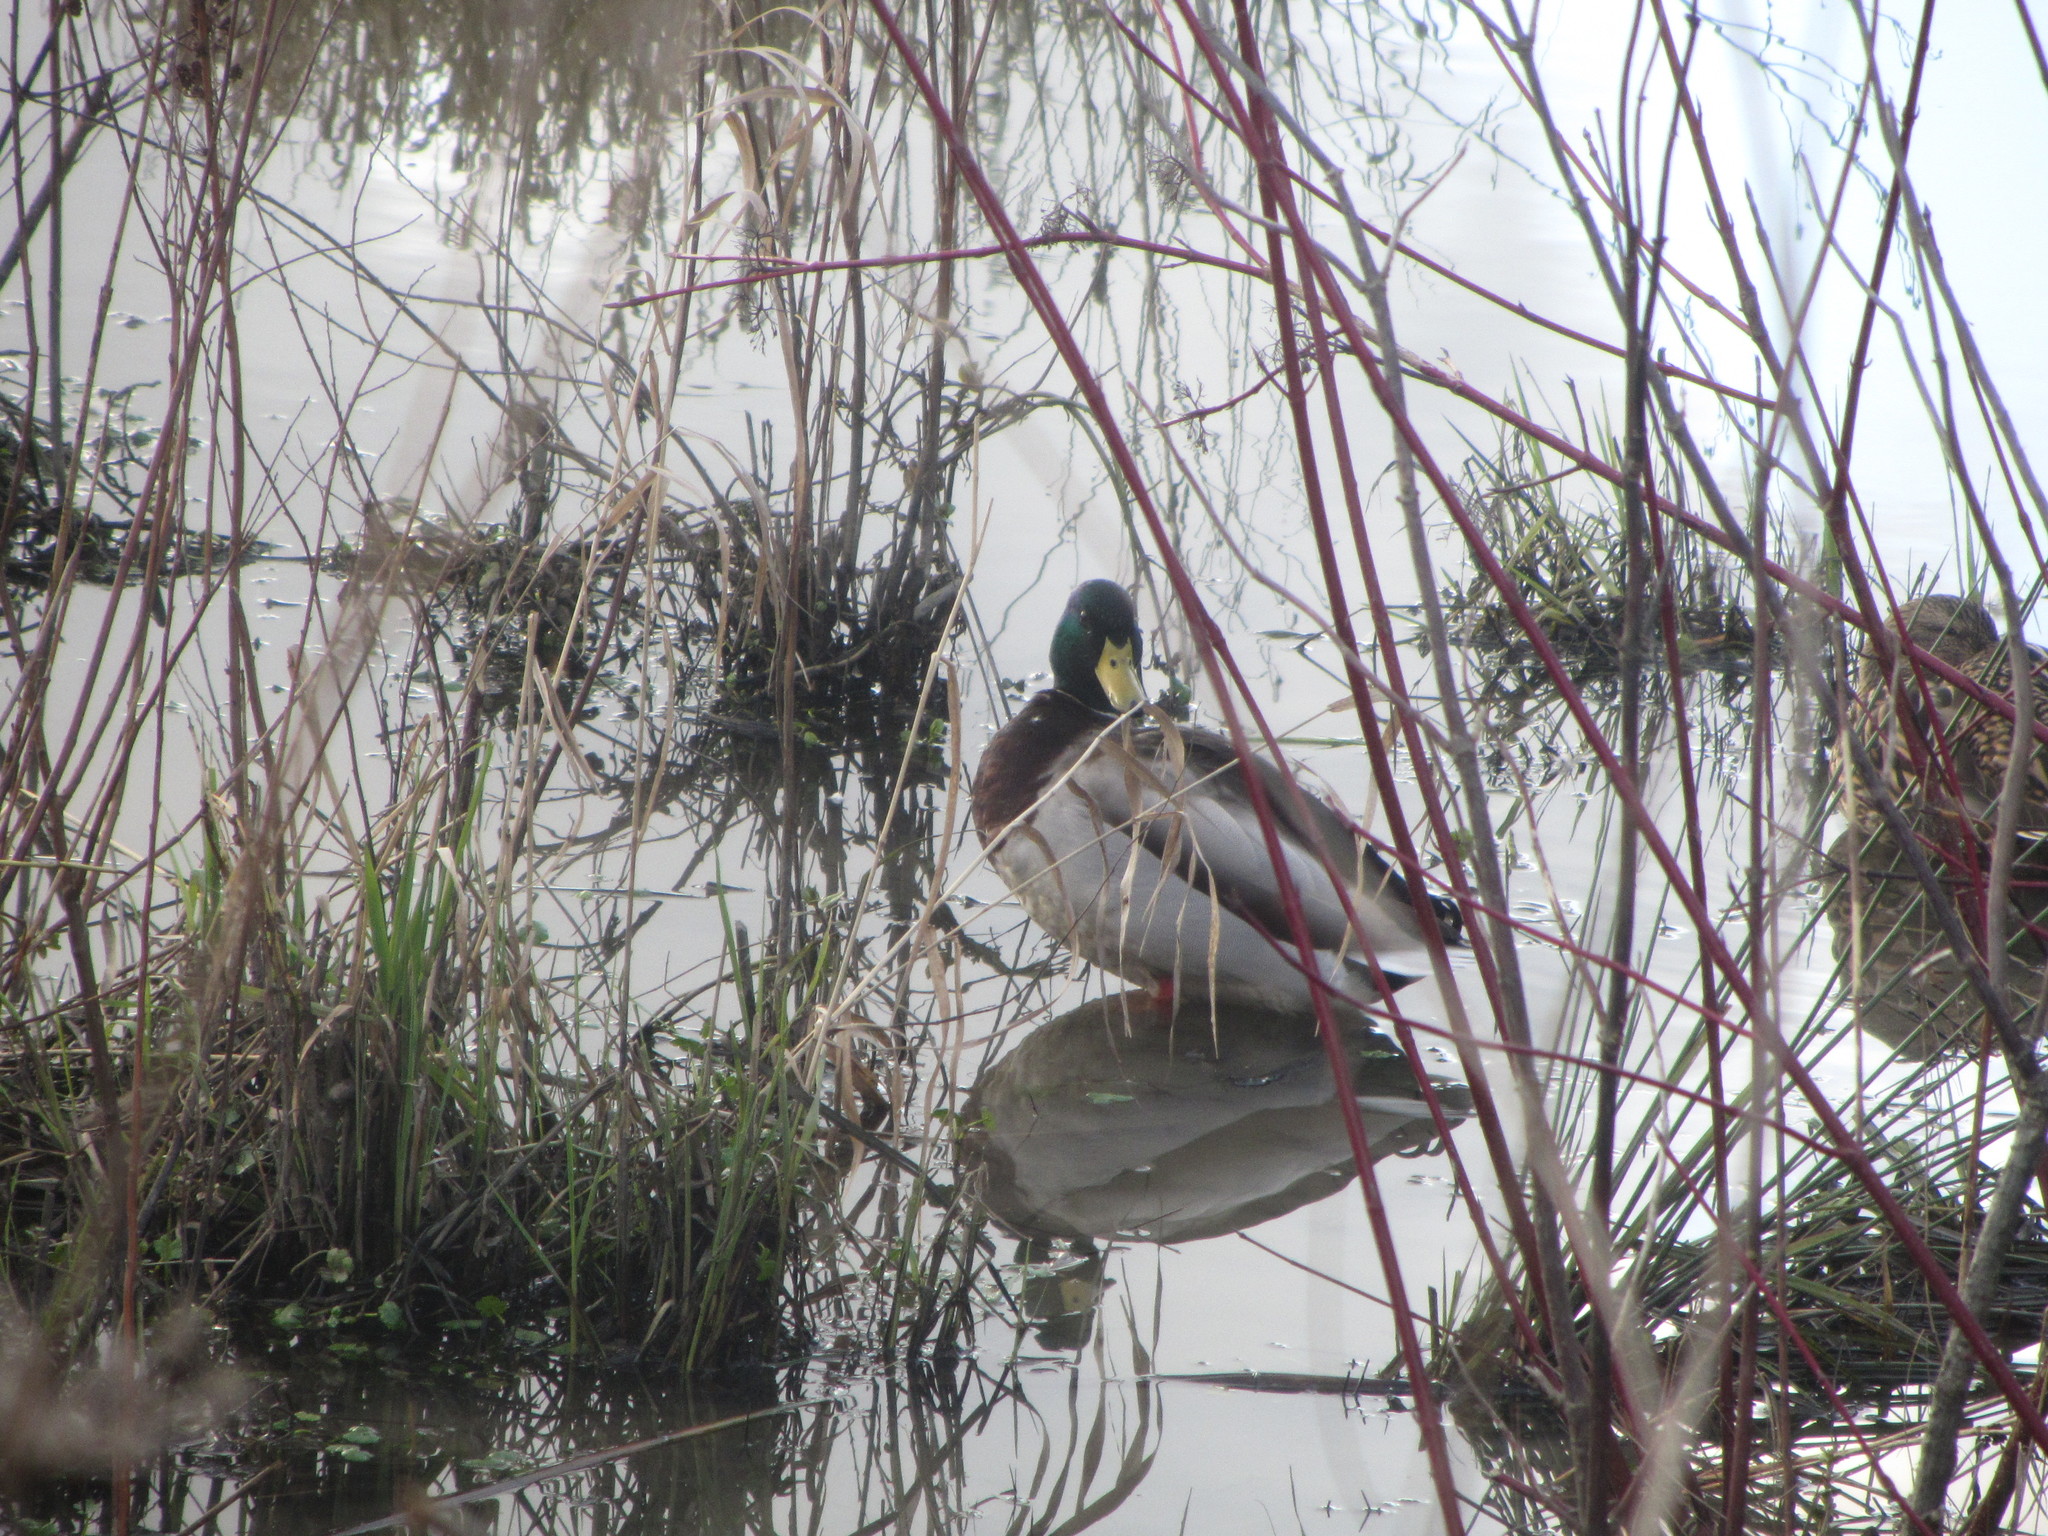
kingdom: Animalia
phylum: Chordata
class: Aves
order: Anseriformes
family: Anatidae
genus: Anas
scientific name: Anas platyrhynchos
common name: Mallard
